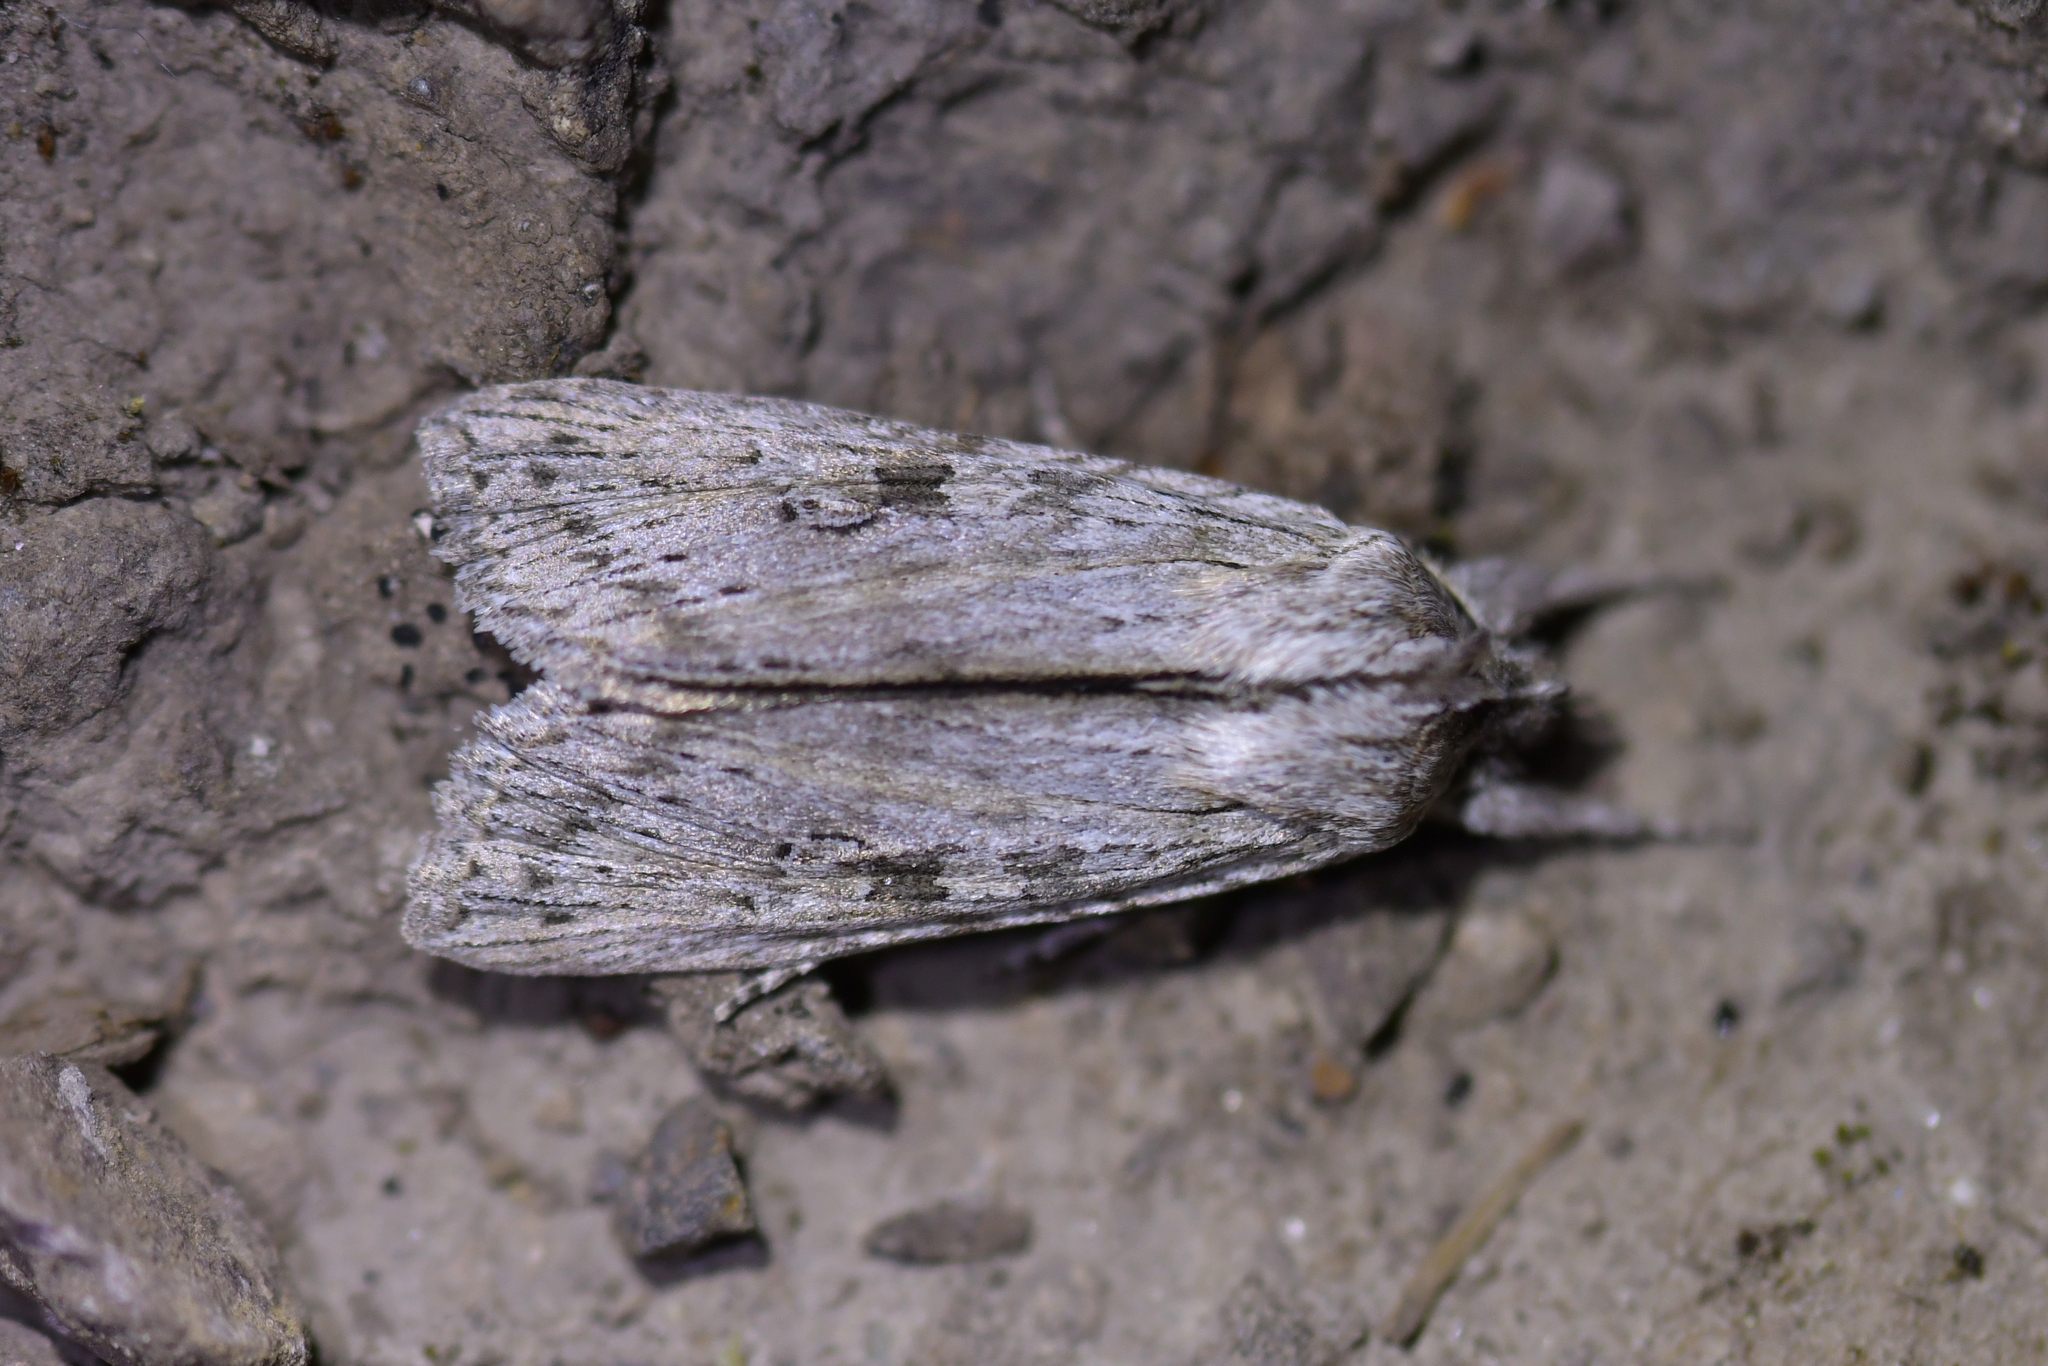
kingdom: Animalia
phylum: Arthropoda
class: Insecta
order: Lepidoptera
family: Noctuidae
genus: Physetica
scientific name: Physetica phricias
